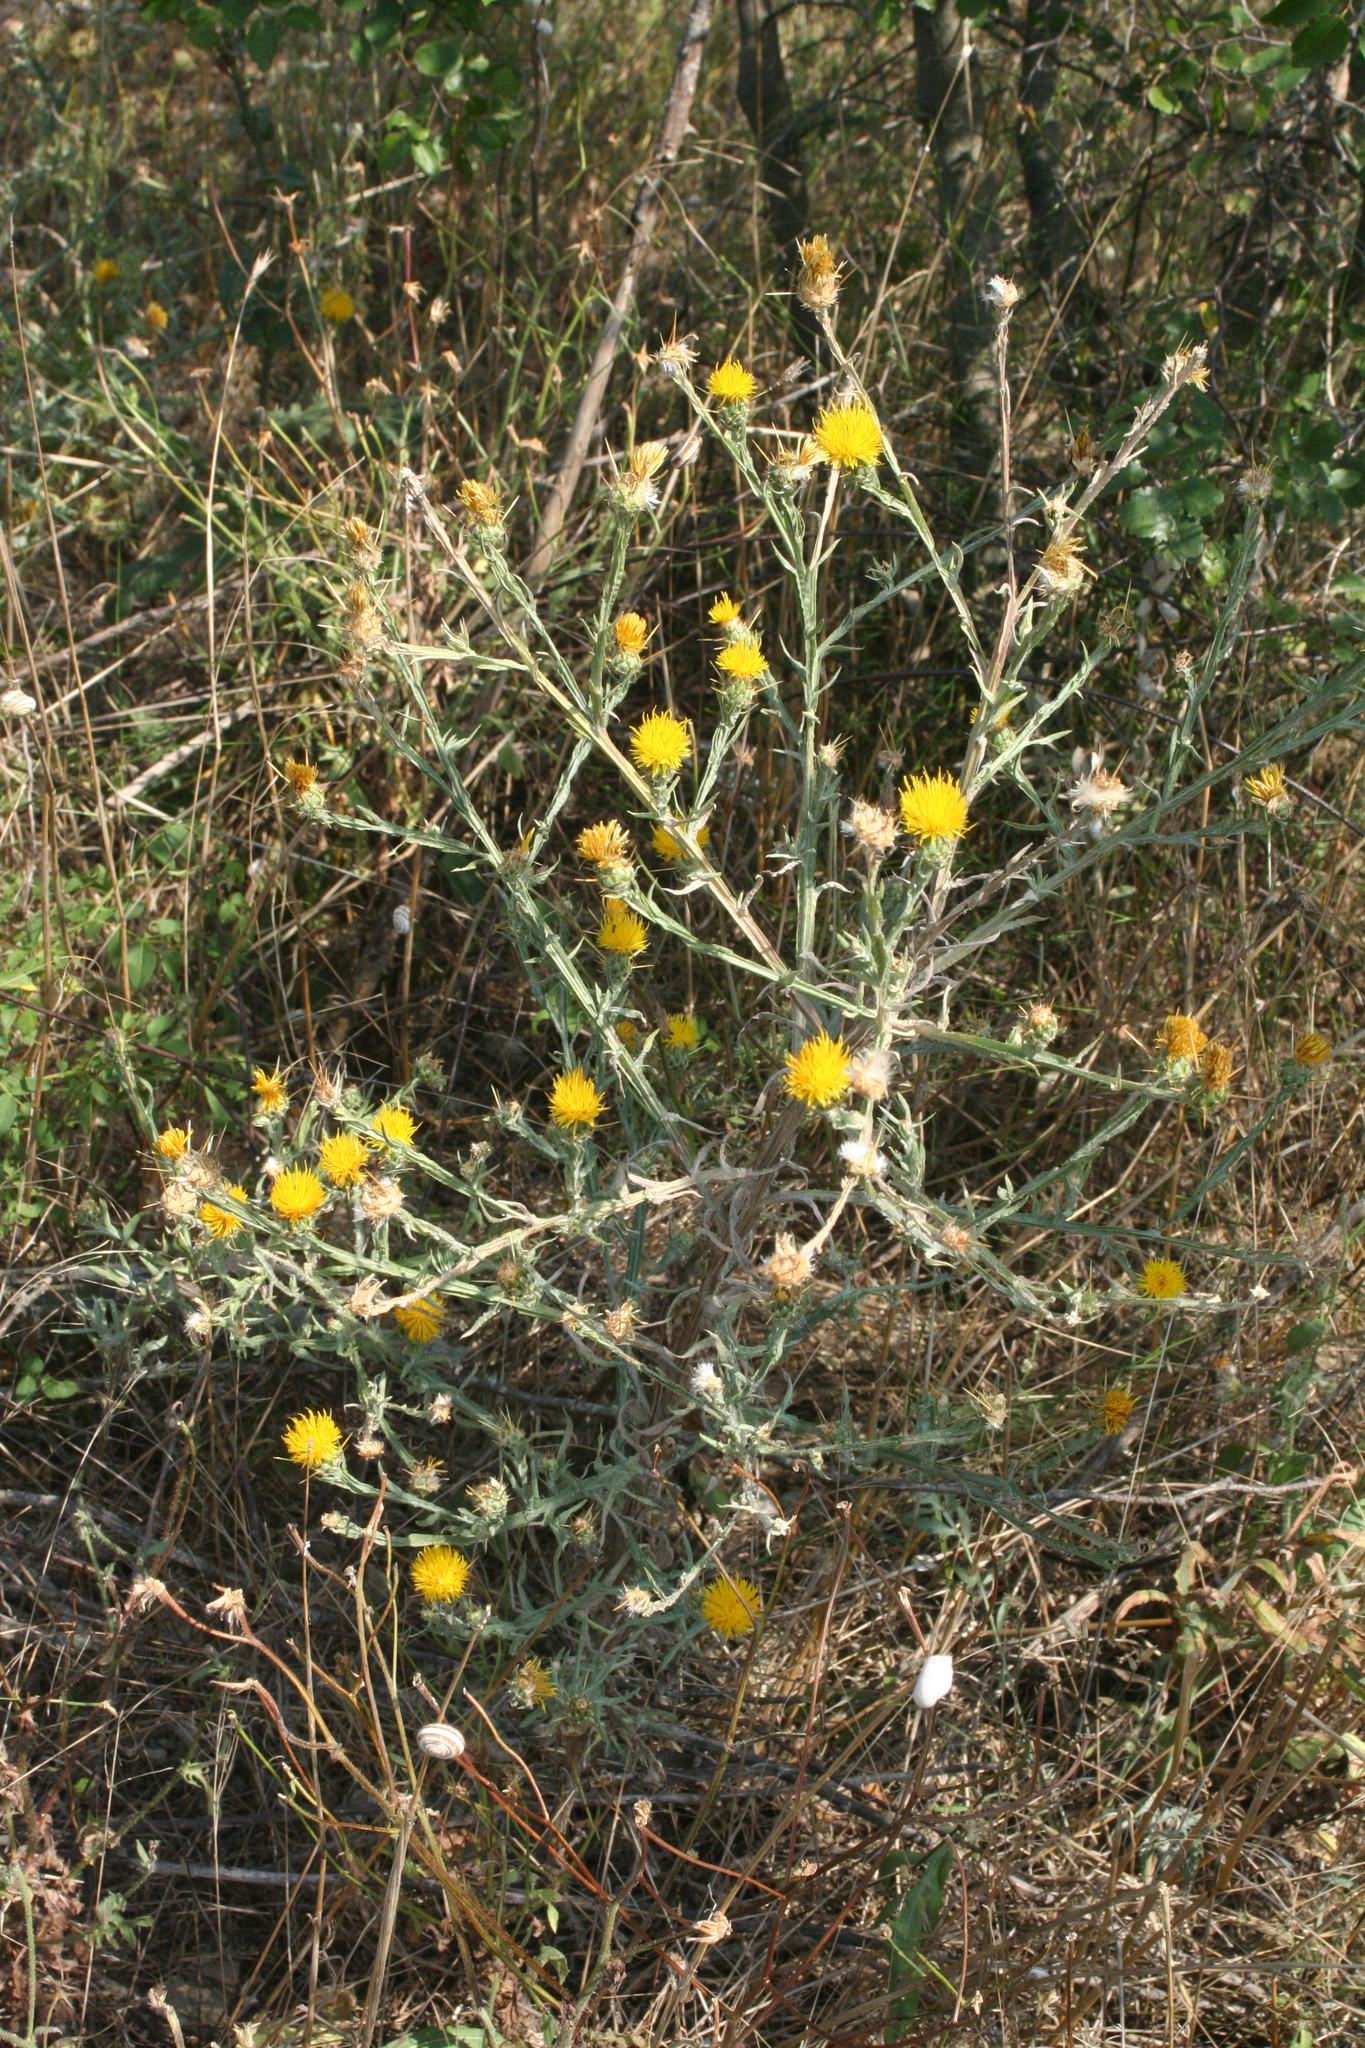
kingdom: Plantae
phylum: Tracheophyta
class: Magnoliopsida
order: Asterales
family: Asteraceae
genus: Centaurea
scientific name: Centaurea solstitialis
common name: Yellow star-thistle
